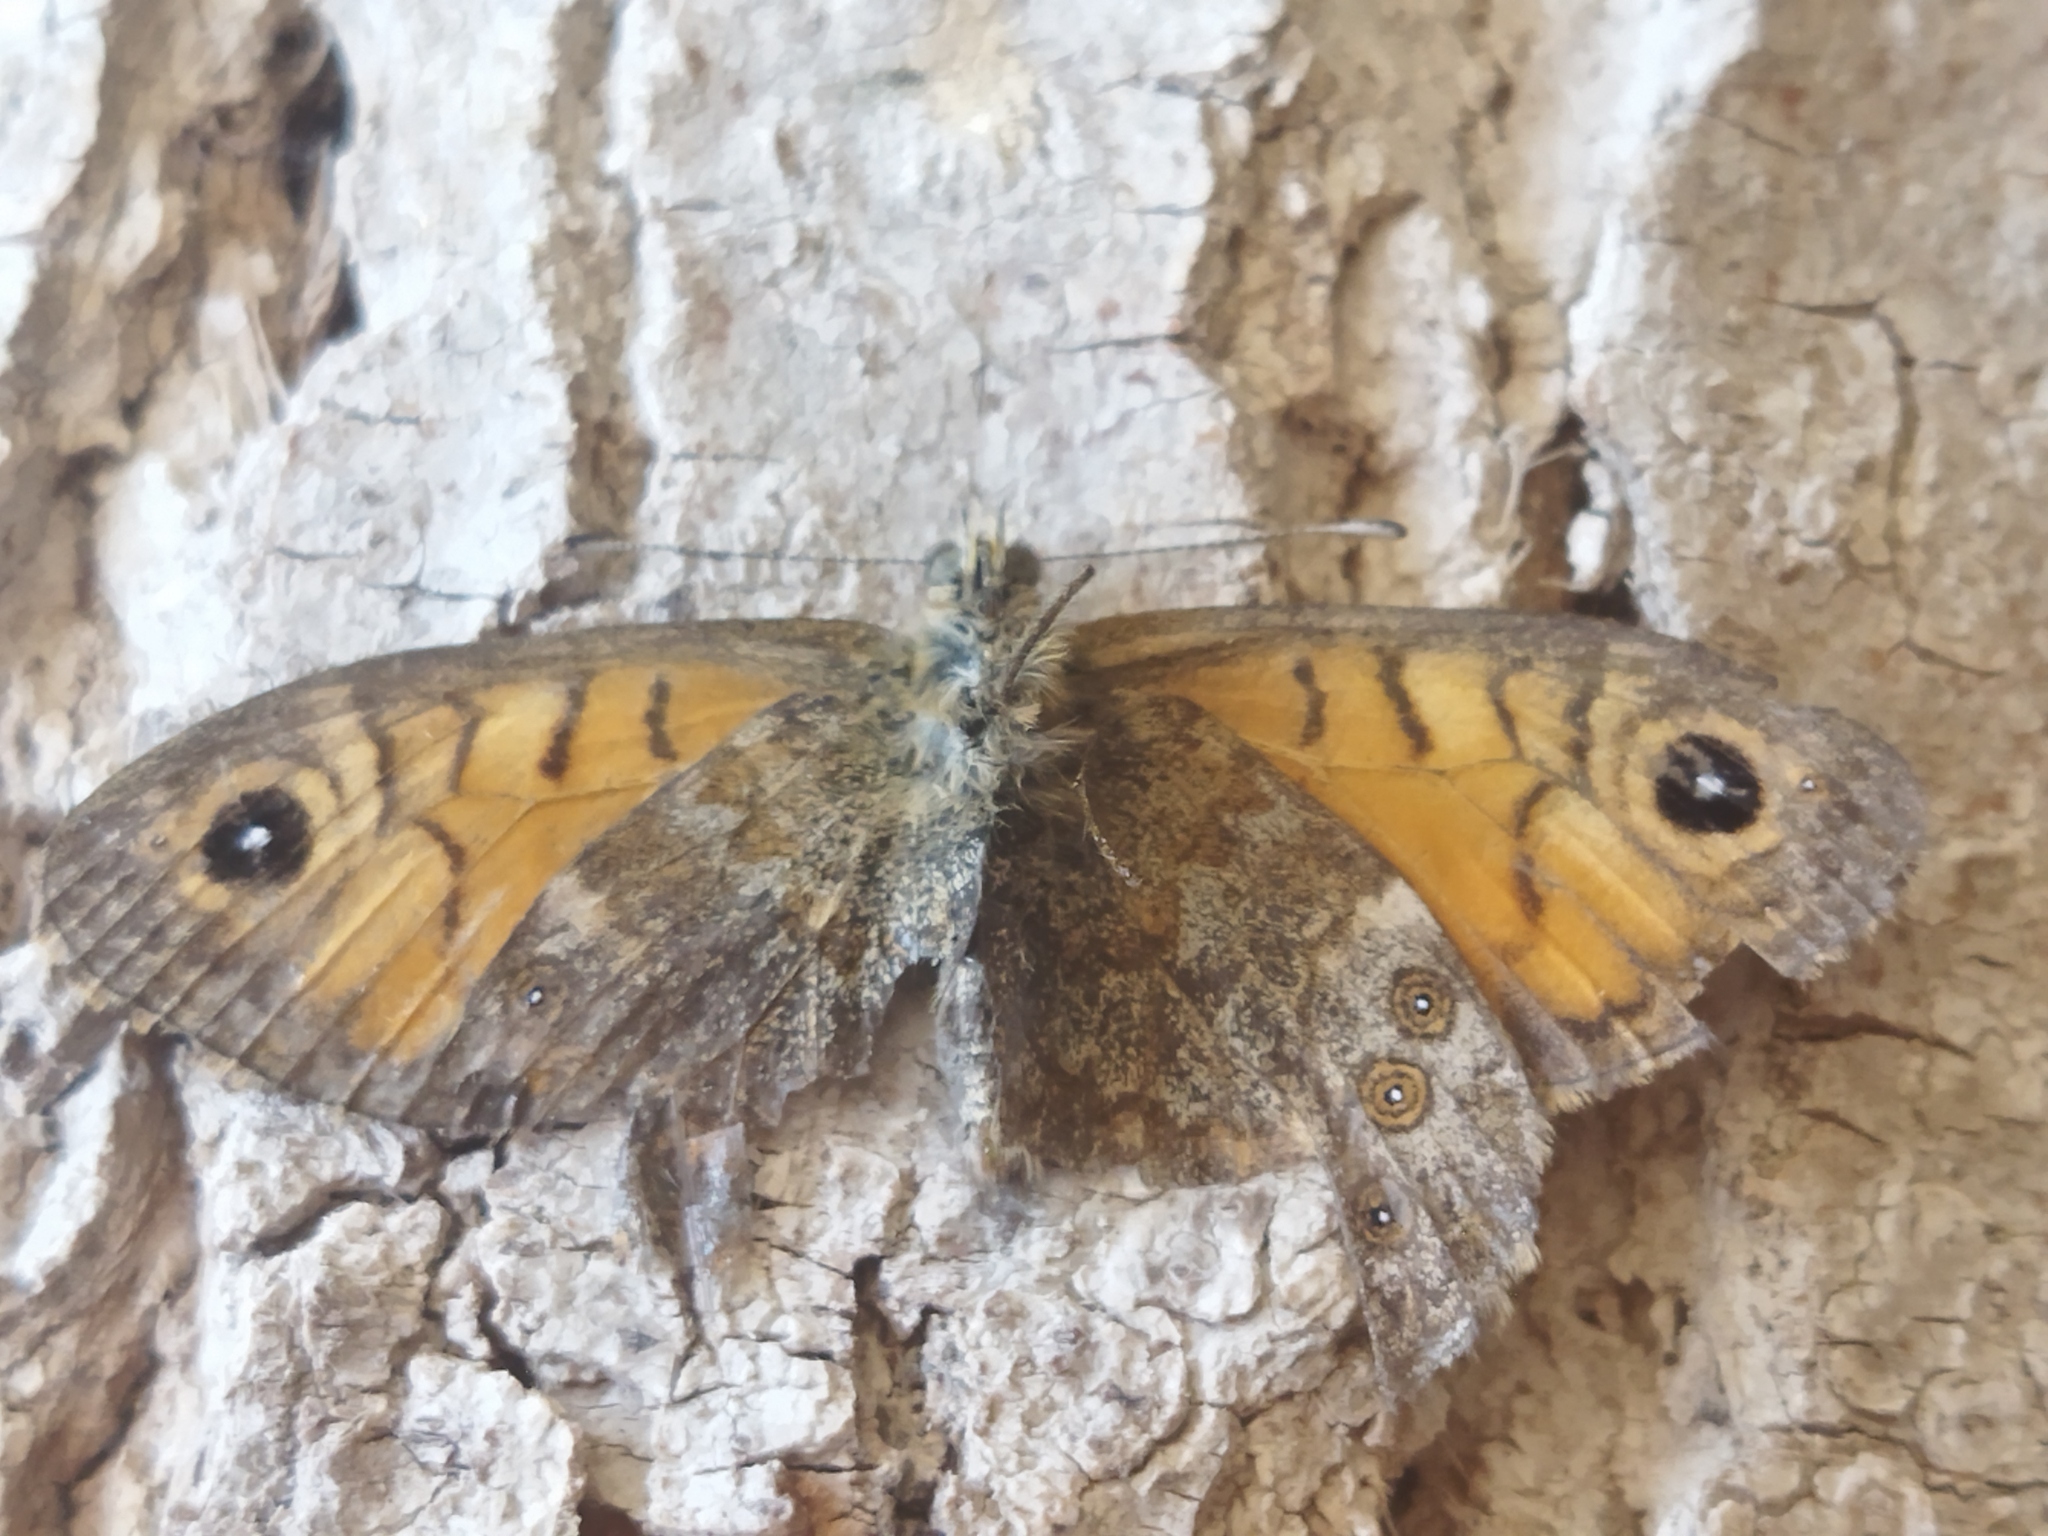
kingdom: Animalia
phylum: Arthropoda
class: Insecta
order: Lepidoptera
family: Nymphalidae
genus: Pararge
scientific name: Pararge Lasiommata megera
